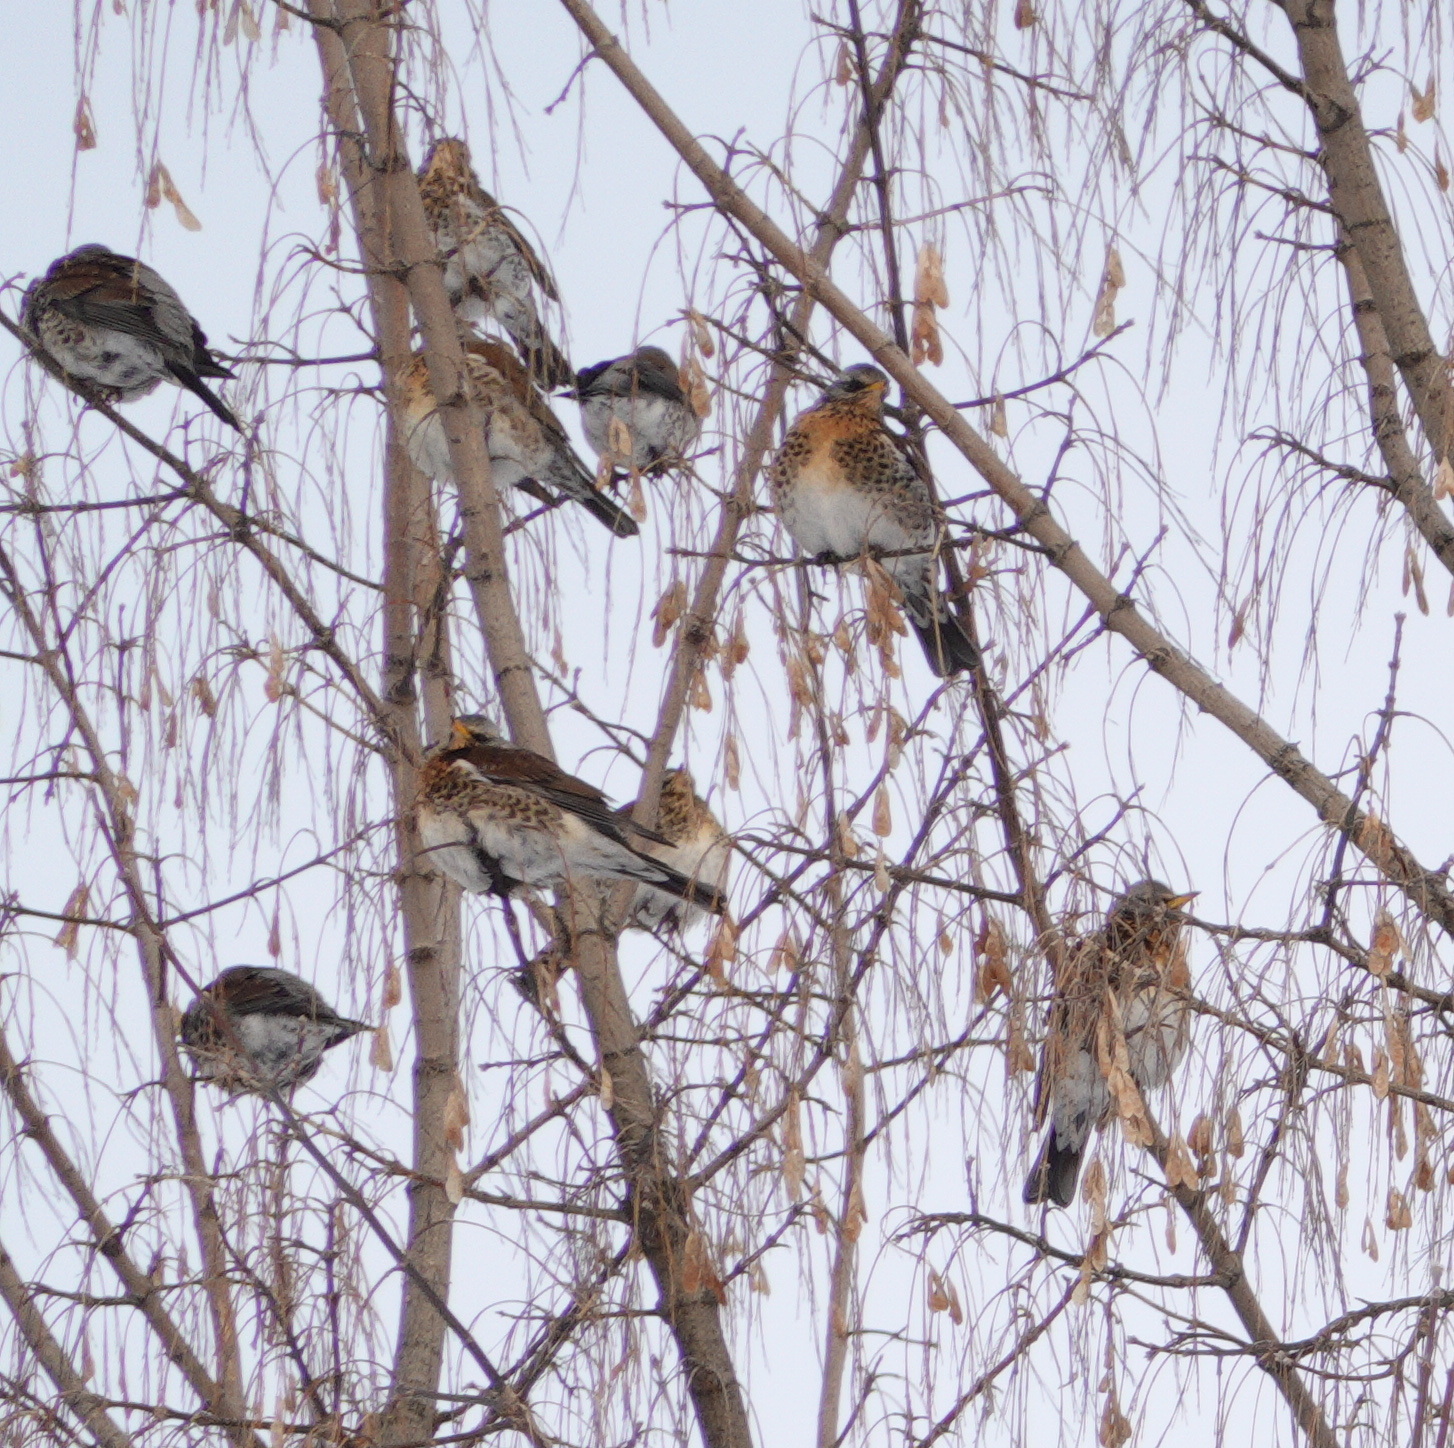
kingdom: Animalia
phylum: Chordata
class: Aves
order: Passeriformes
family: Turdidae
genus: Turdus
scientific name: Turdus pilaris
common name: Fieldfare
